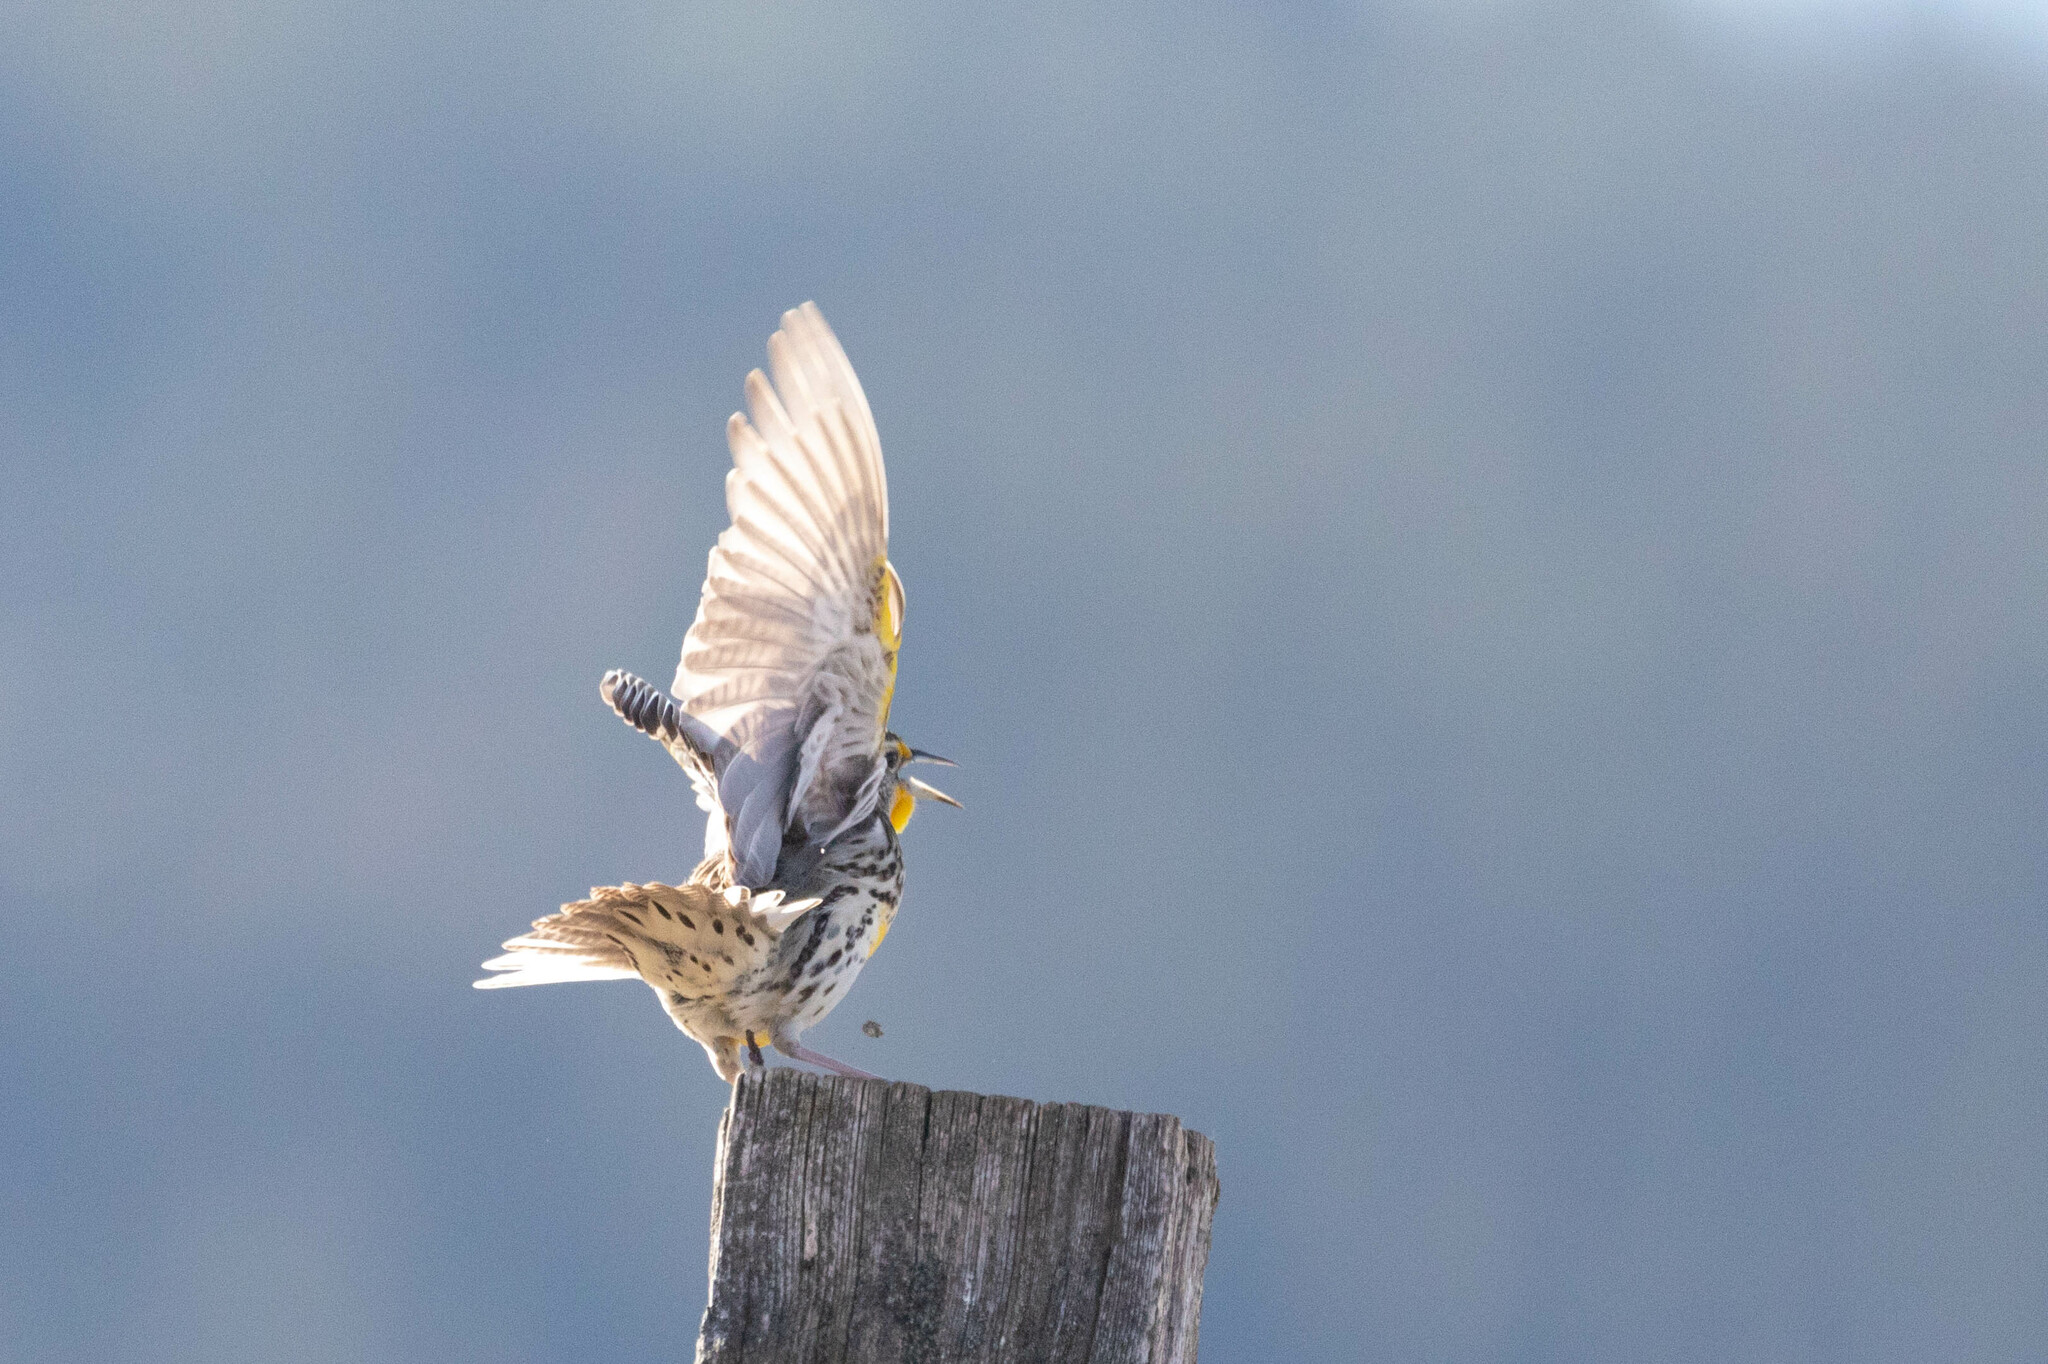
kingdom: Animalia
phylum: Chordata
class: Aves
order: Passeriformes
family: Icteridae
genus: Sturnella
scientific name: Sturnella neglecta
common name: Western meadowlark
